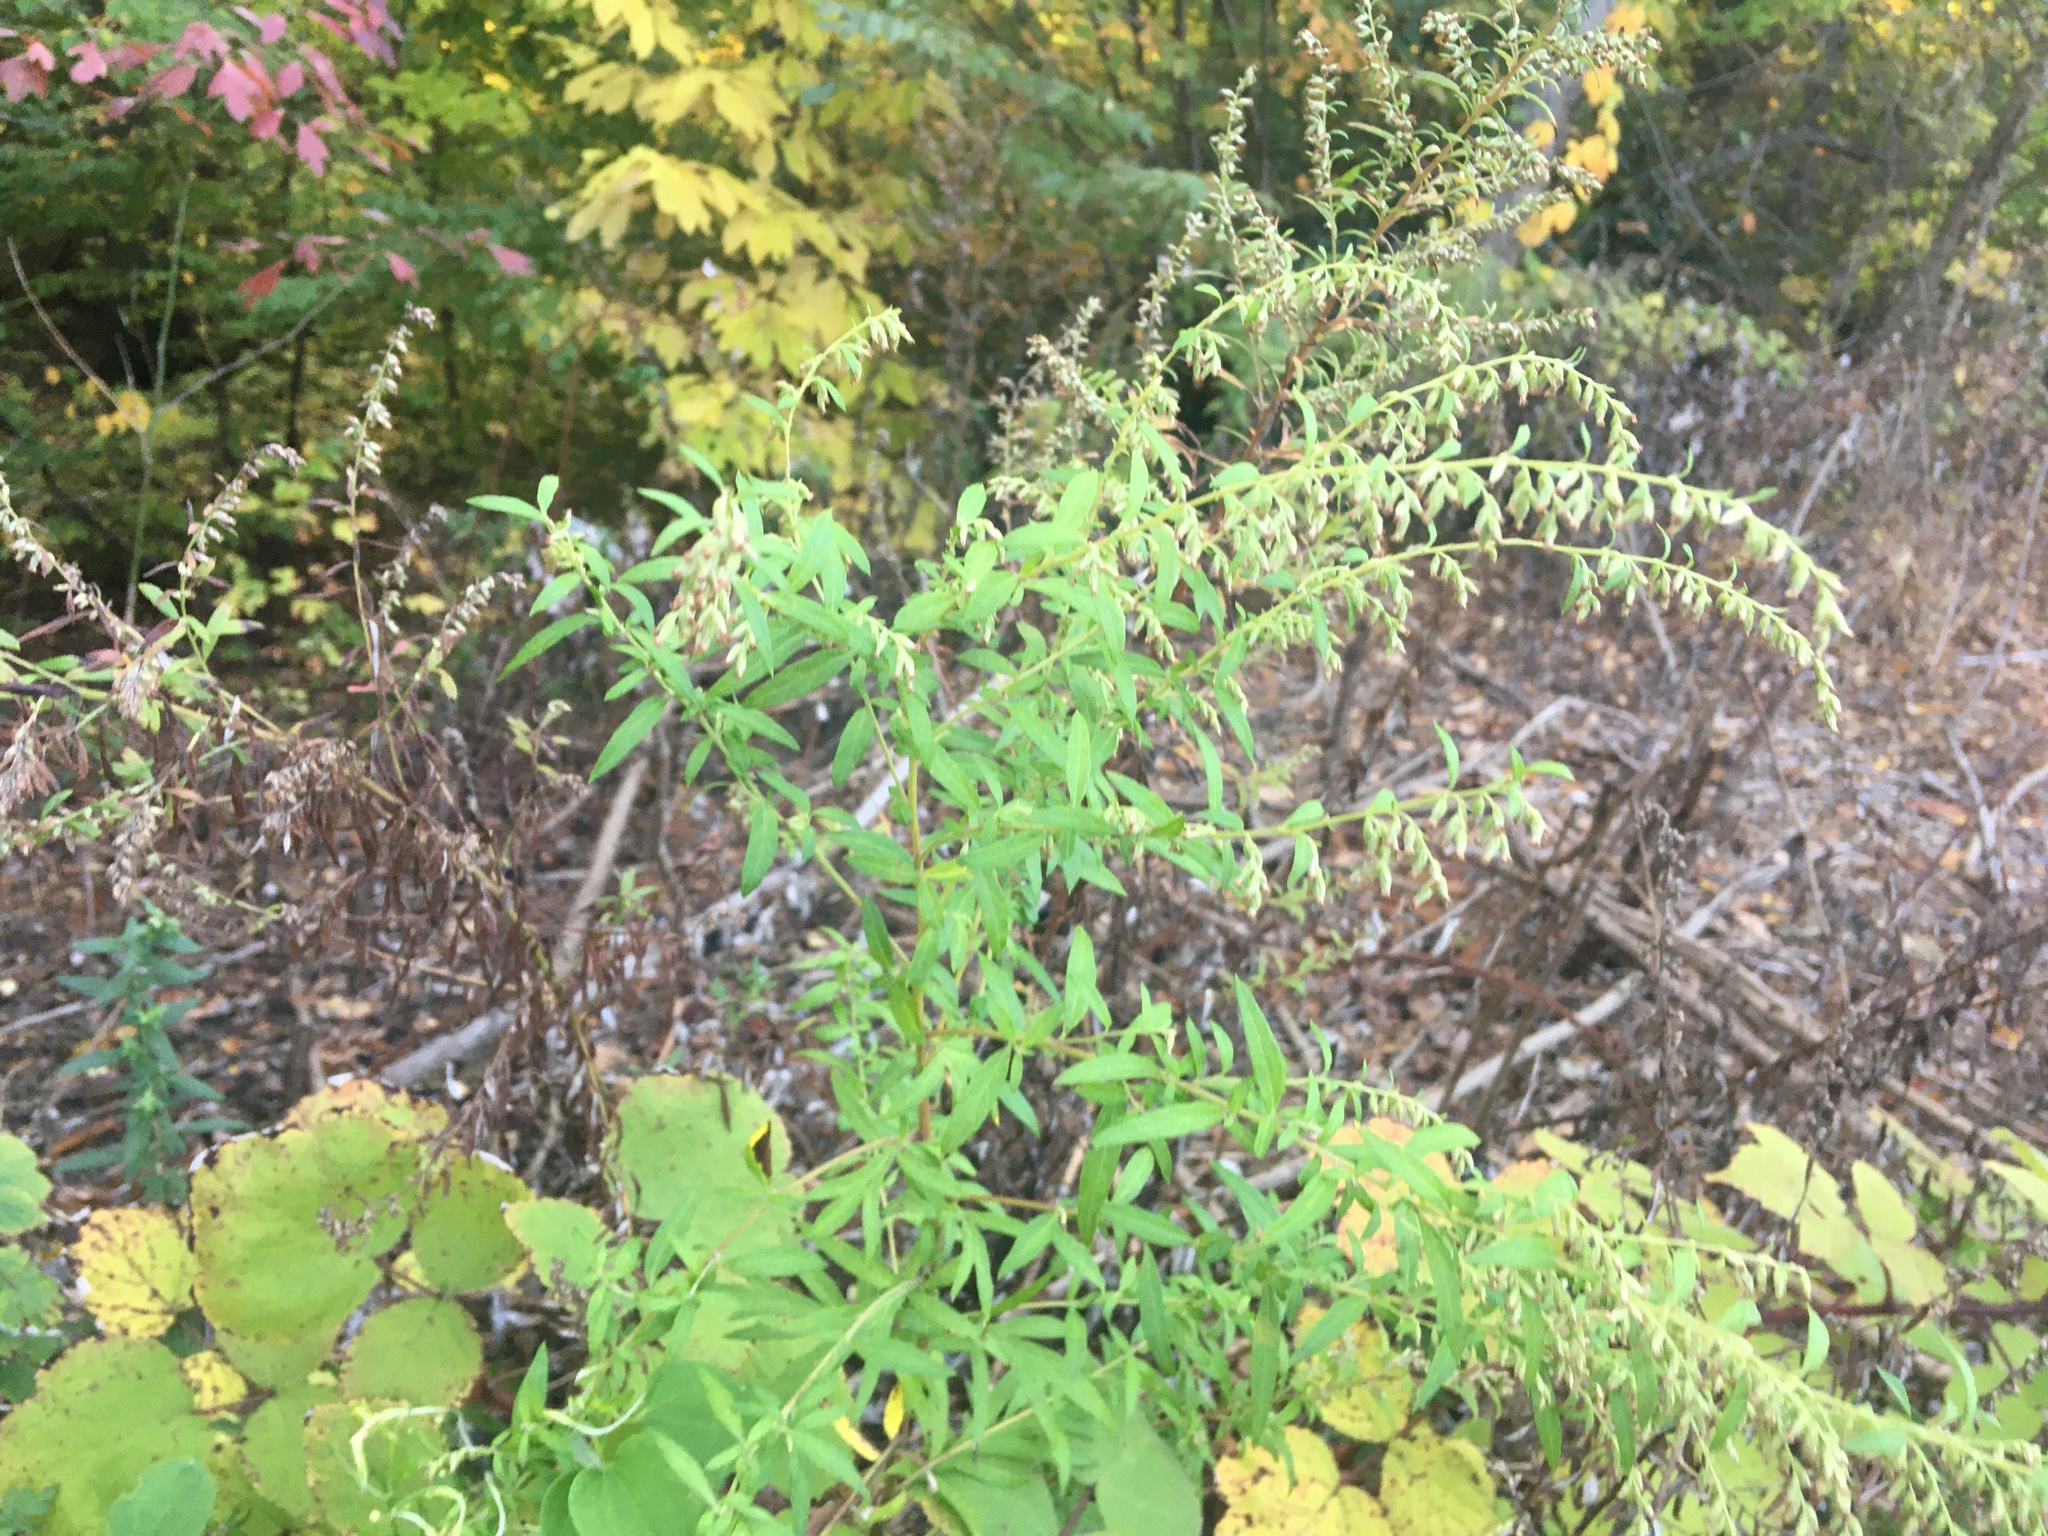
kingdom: Plantae
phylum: Tracheophyta
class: Magnoliopsida
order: Asterales
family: Asteraceae
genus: Artemisia
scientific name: Artemisia vulgaris
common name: Mugwort
